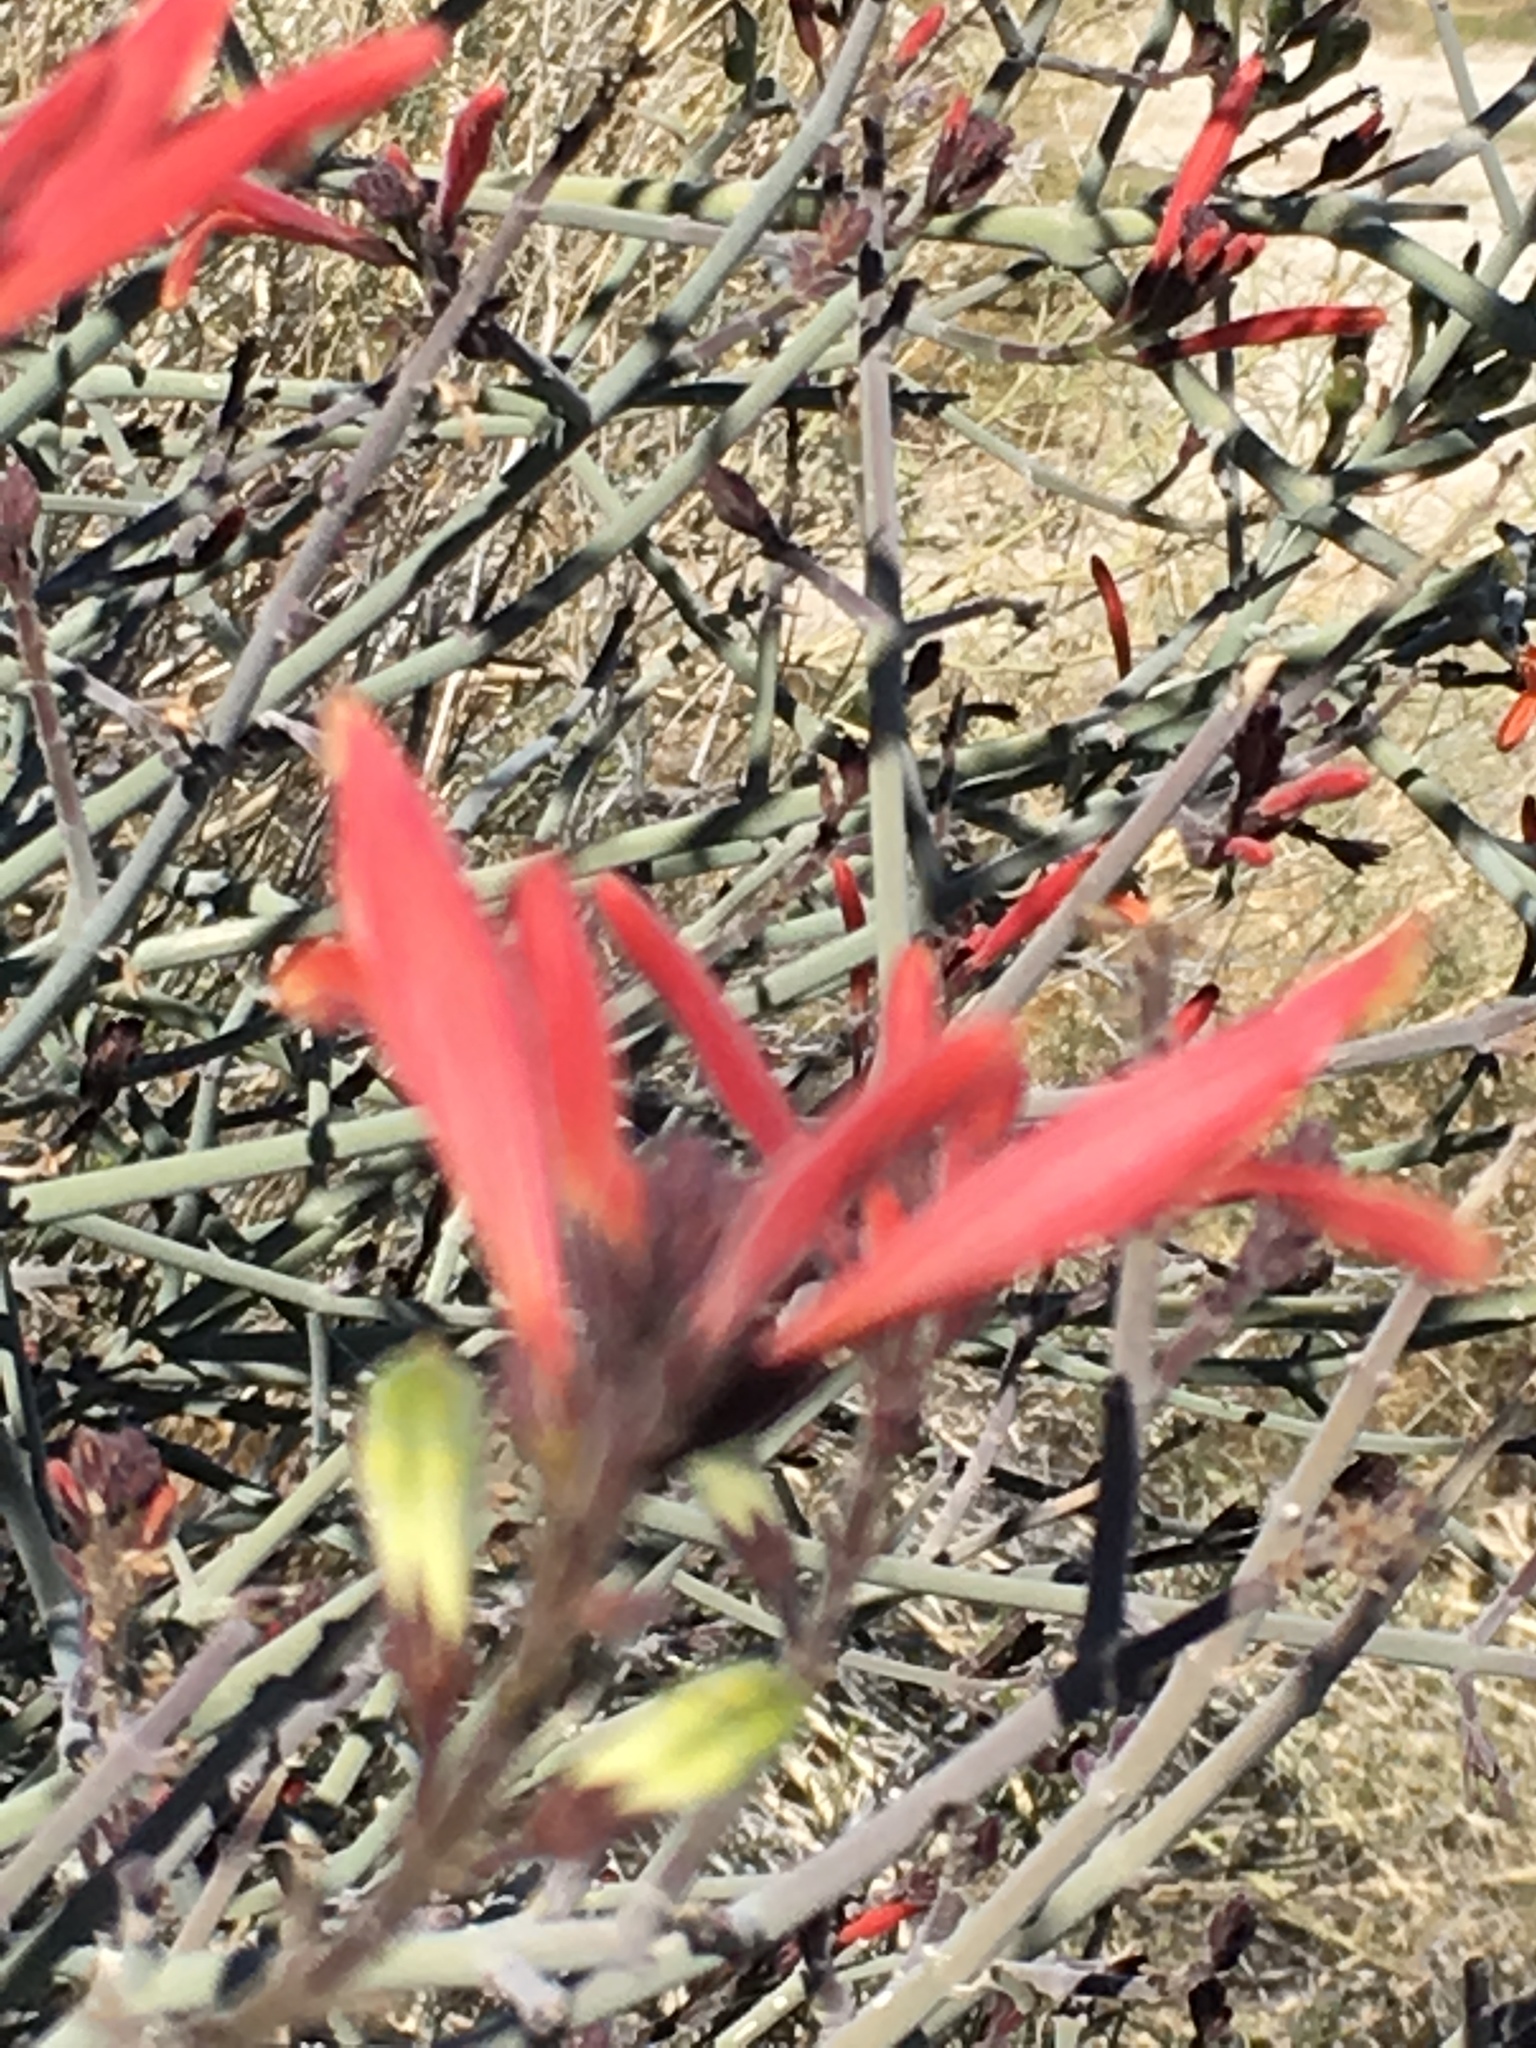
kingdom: Plantae
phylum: Tracheophyta
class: Magnoliopsida
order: Lamiales
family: Acanthaceae
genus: Justicia
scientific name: Justicia californica
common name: Chuparosa-honeysuckle
